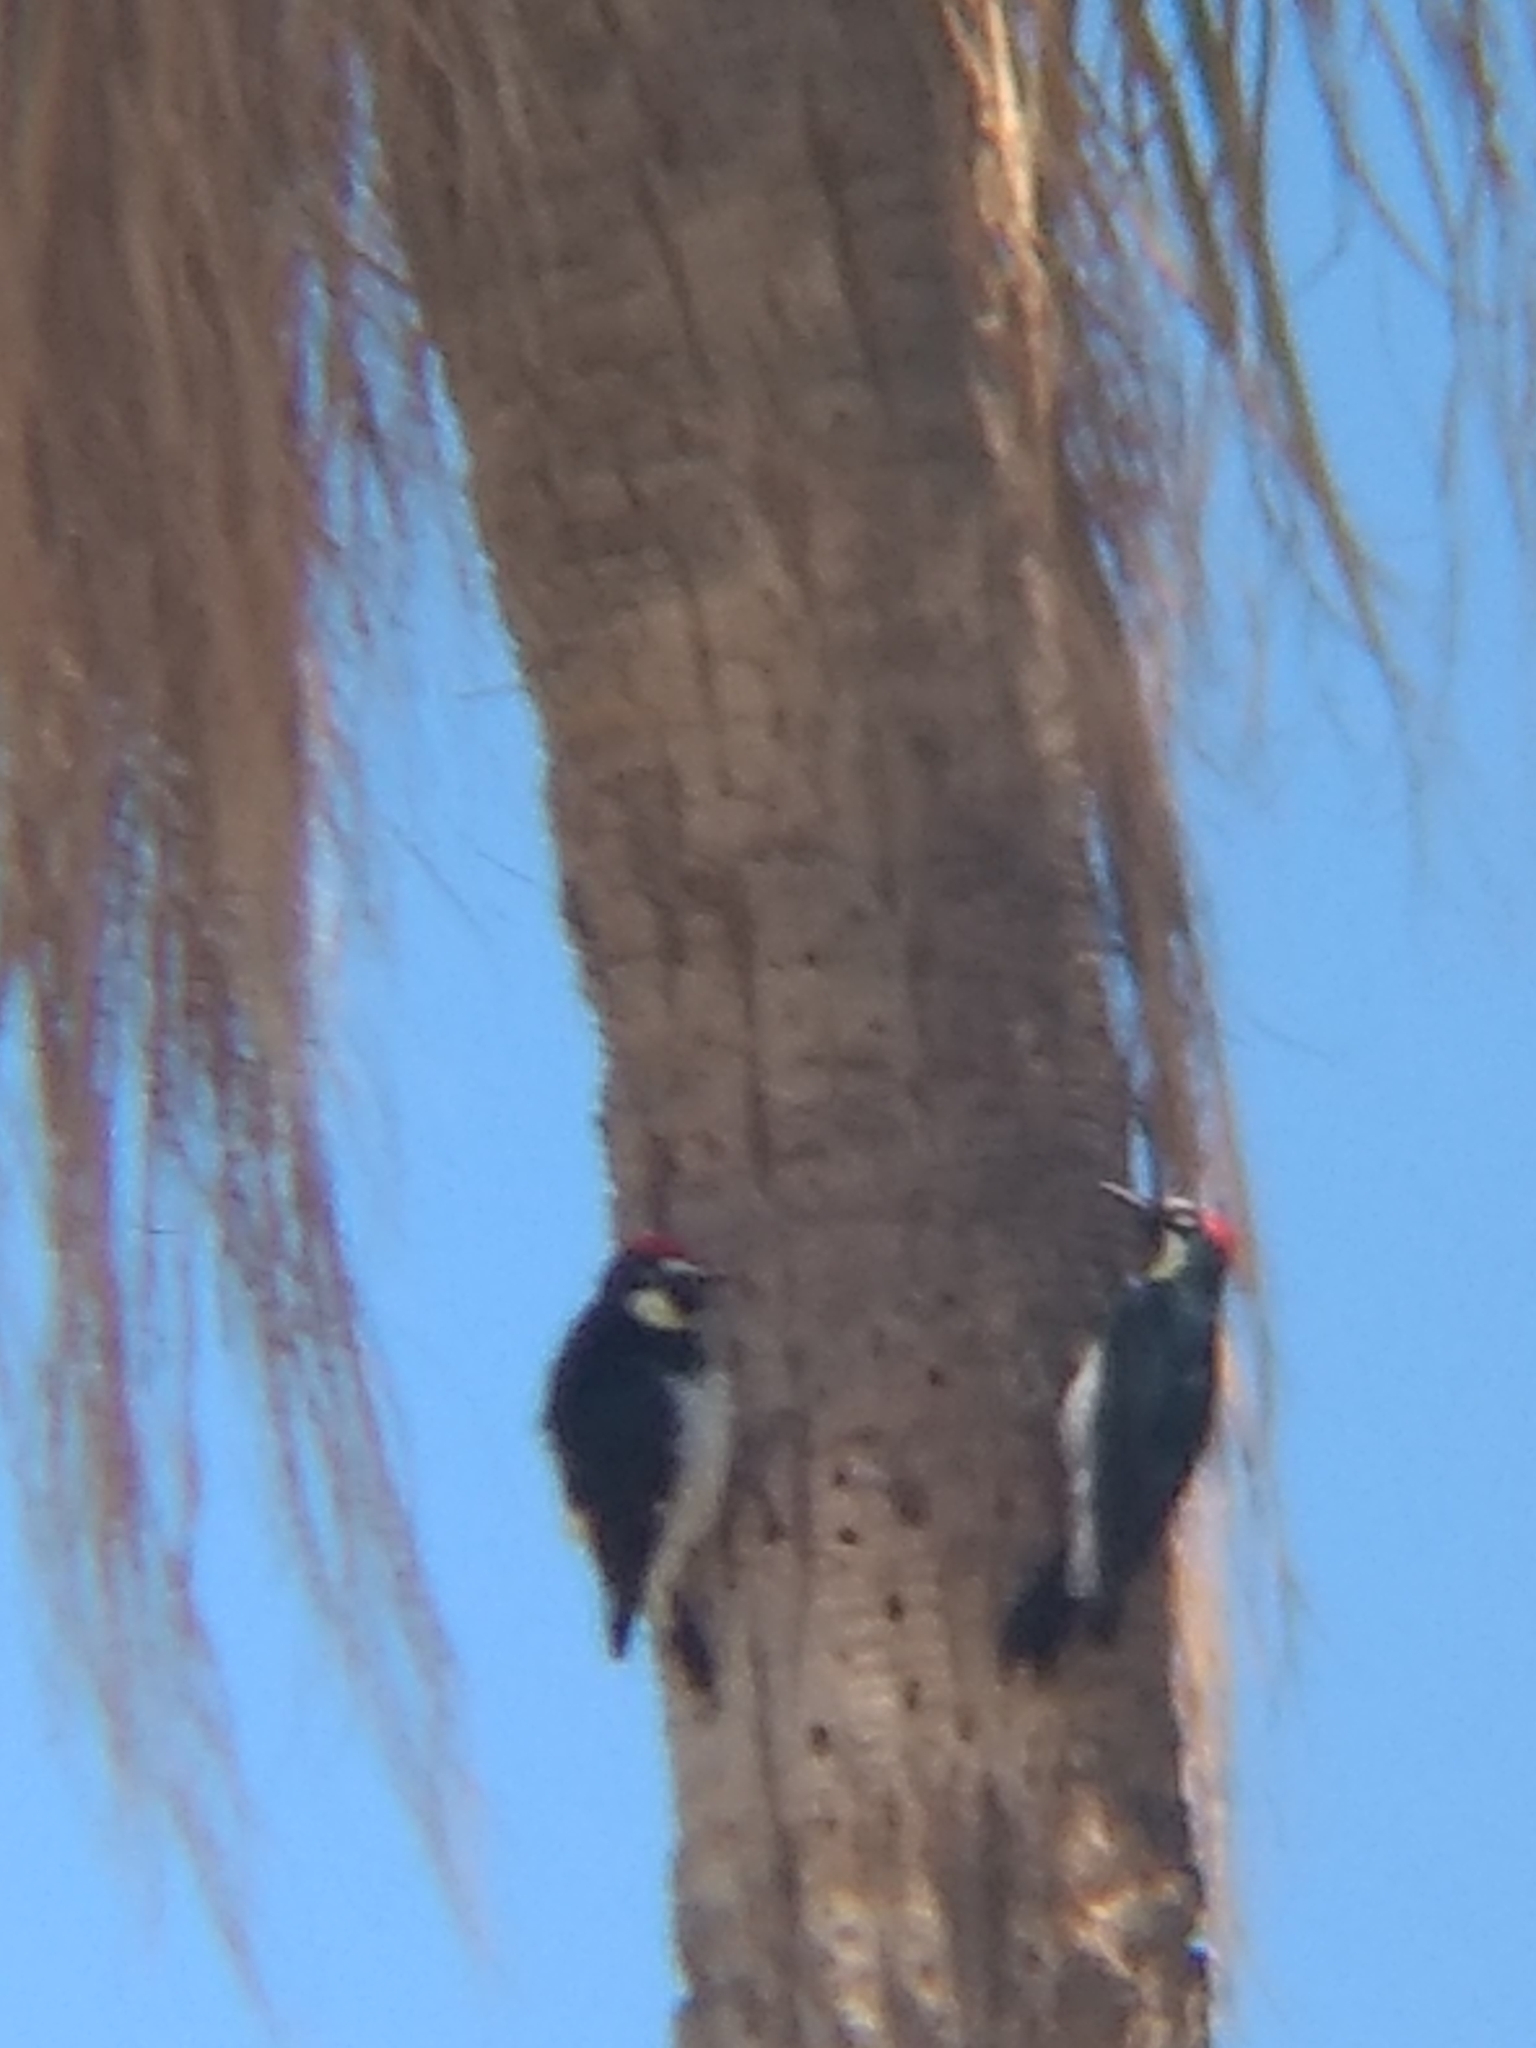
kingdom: Animalia
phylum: Chordata
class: Aves
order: Piciformes
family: Picidae
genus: Melanerpes
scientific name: Melanerpes formicivorus
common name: Acorn woodpecker
